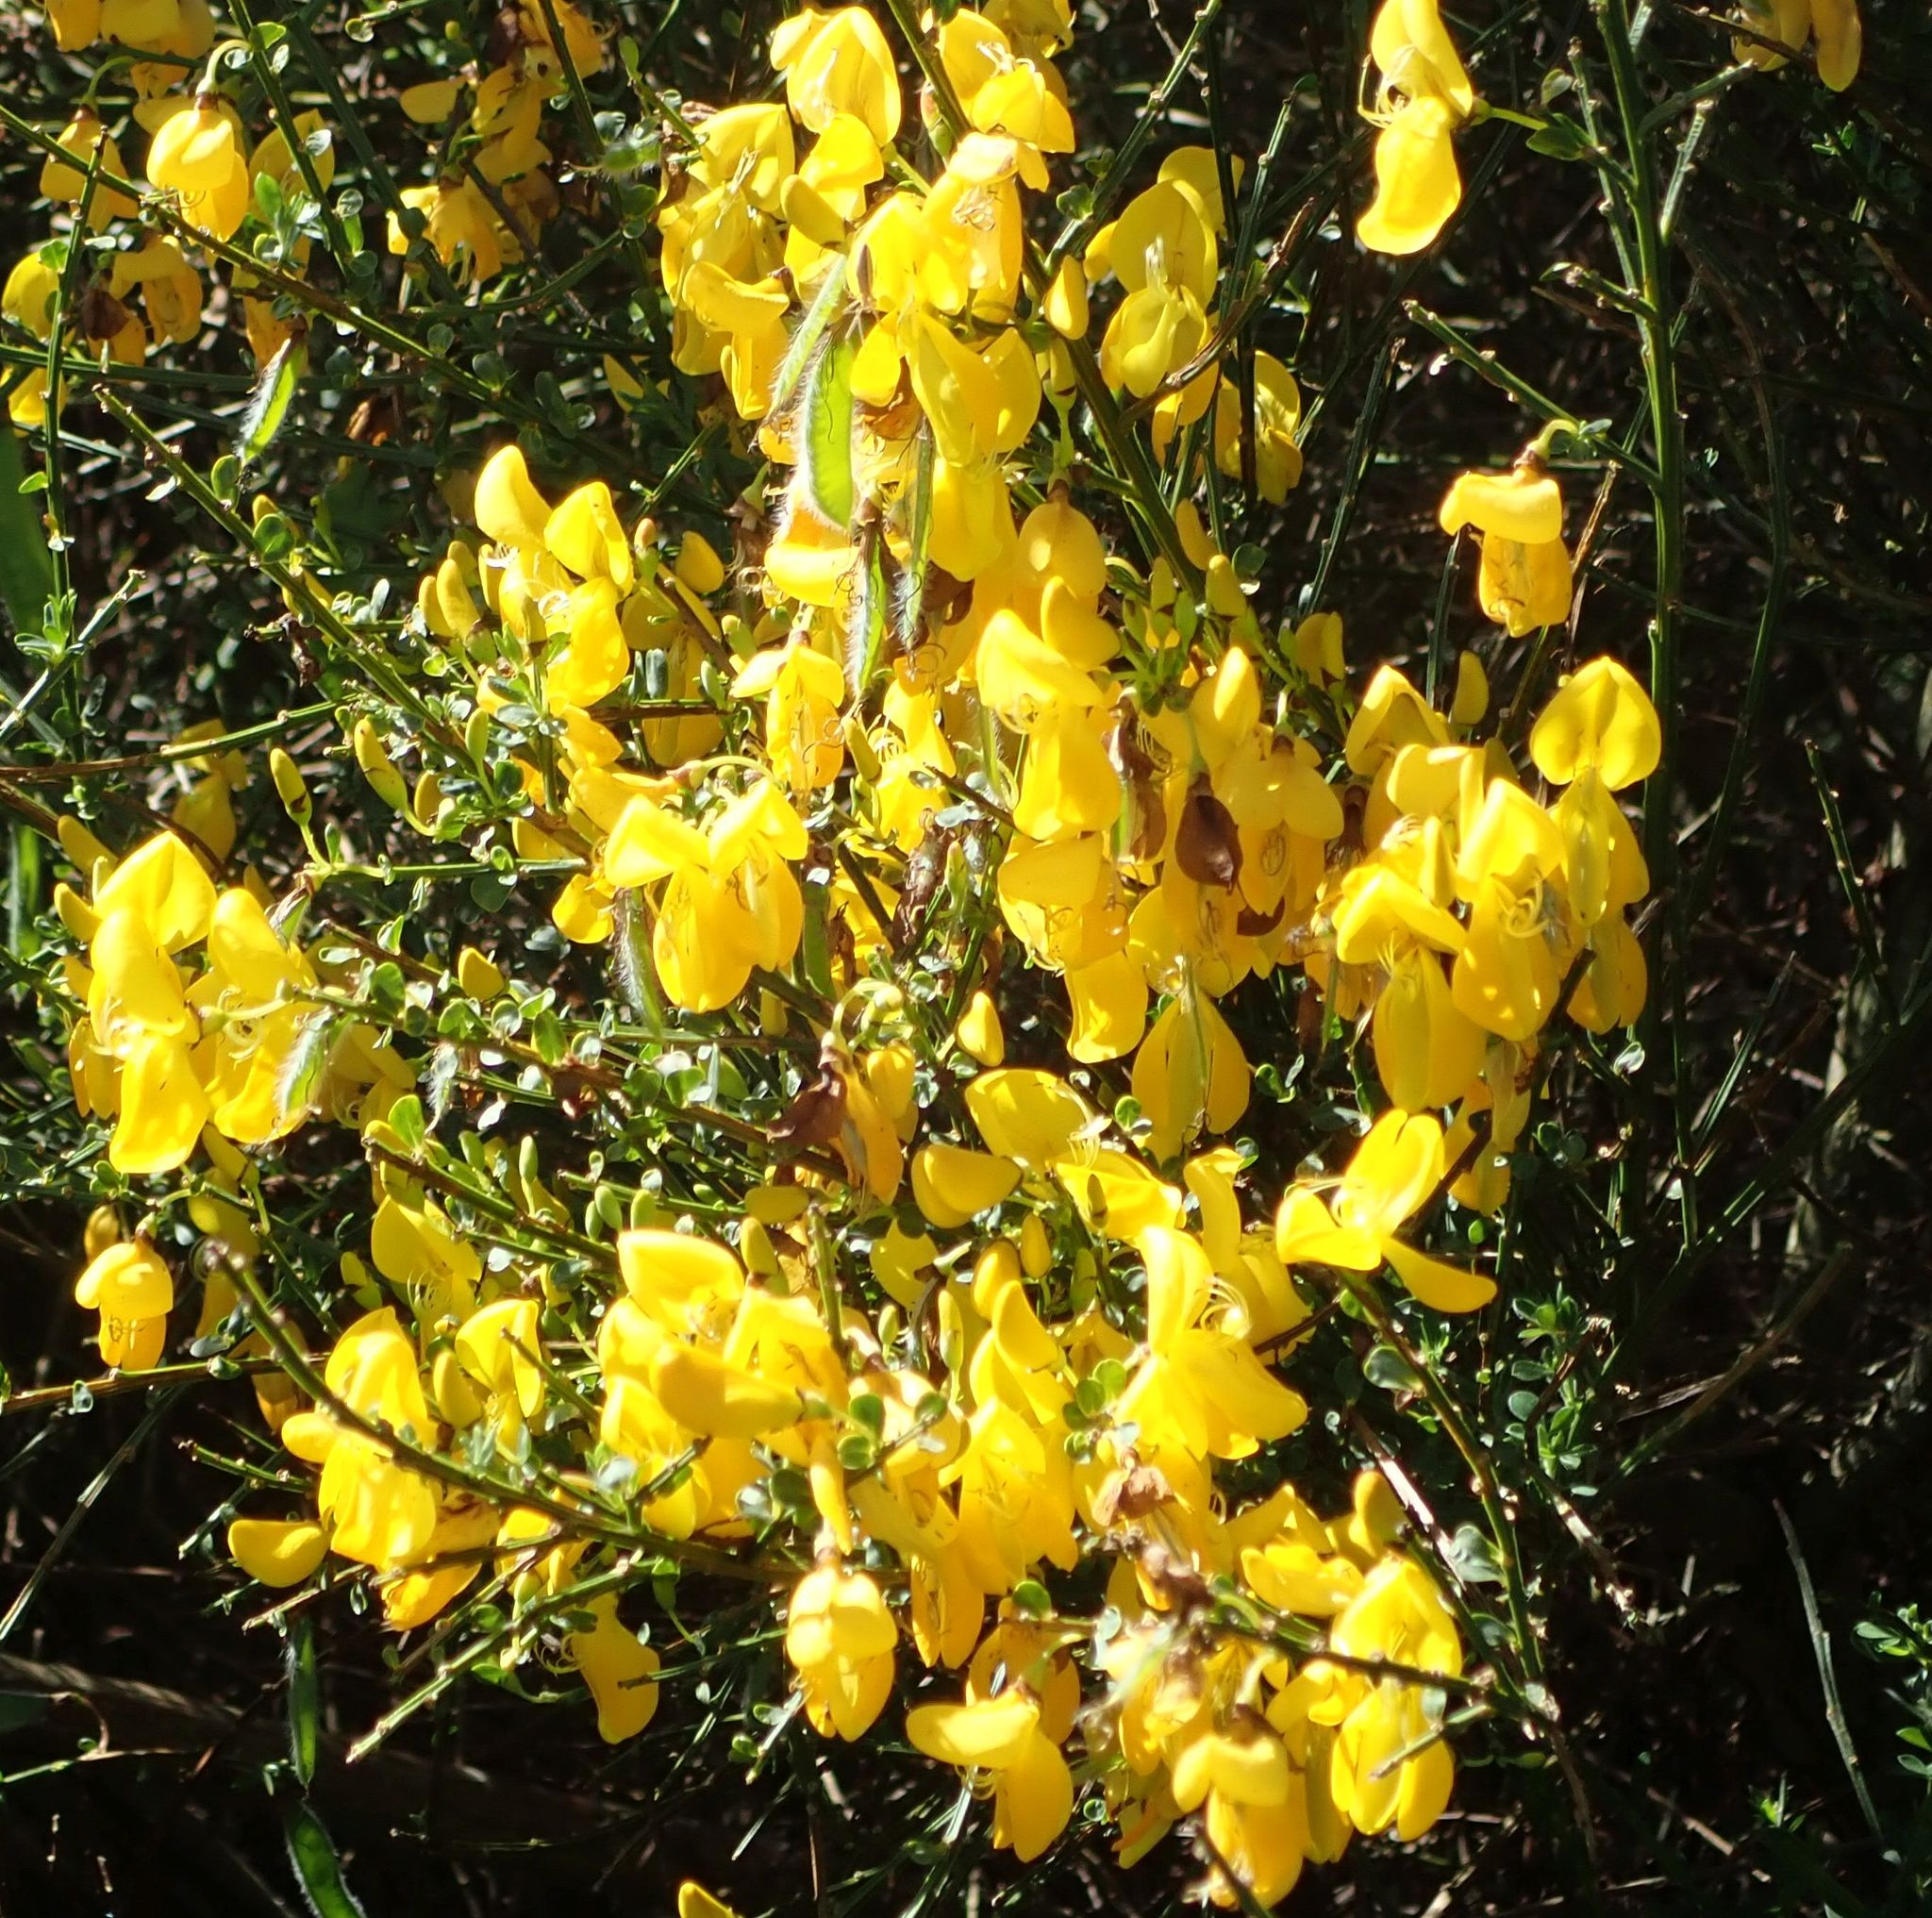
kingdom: Plantae
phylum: Tracheophyta
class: Magnoliopsida
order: Fabales
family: Fabaceae
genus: Cytisus
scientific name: Cytisus scoparius
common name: Scotch broom
